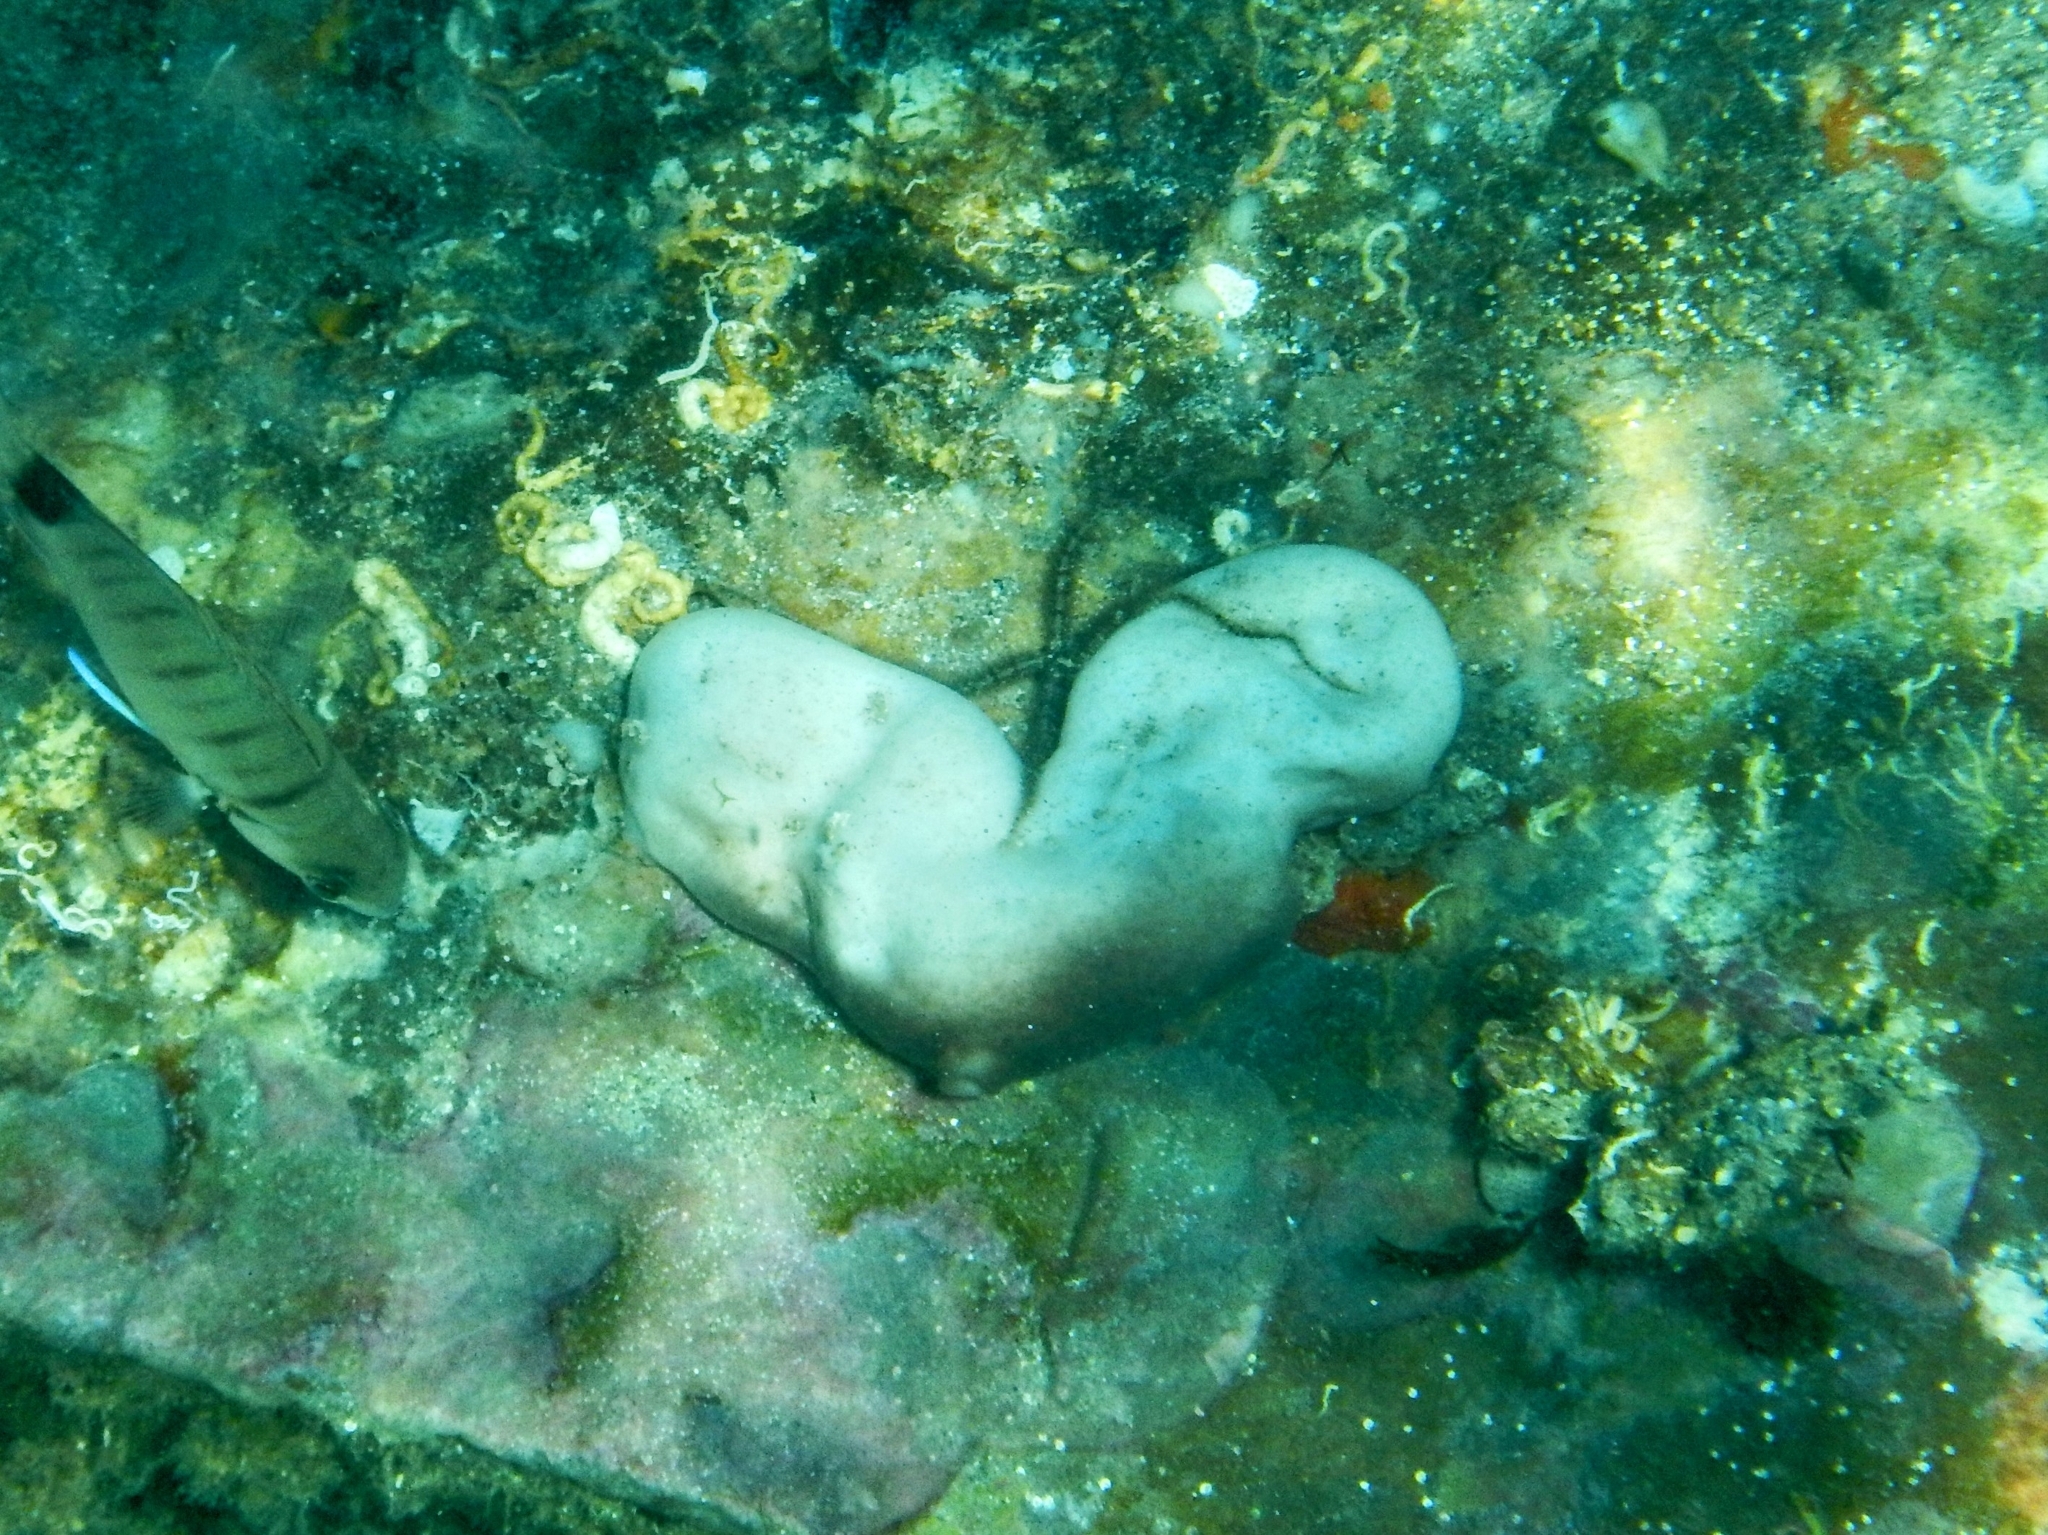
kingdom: Animalia
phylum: Porifera
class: Demospongiae
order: Chondrosiida
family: Chondrosiidae
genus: Chondrosia
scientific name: Chondrosia reniformis
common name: Chicken liver sponge
